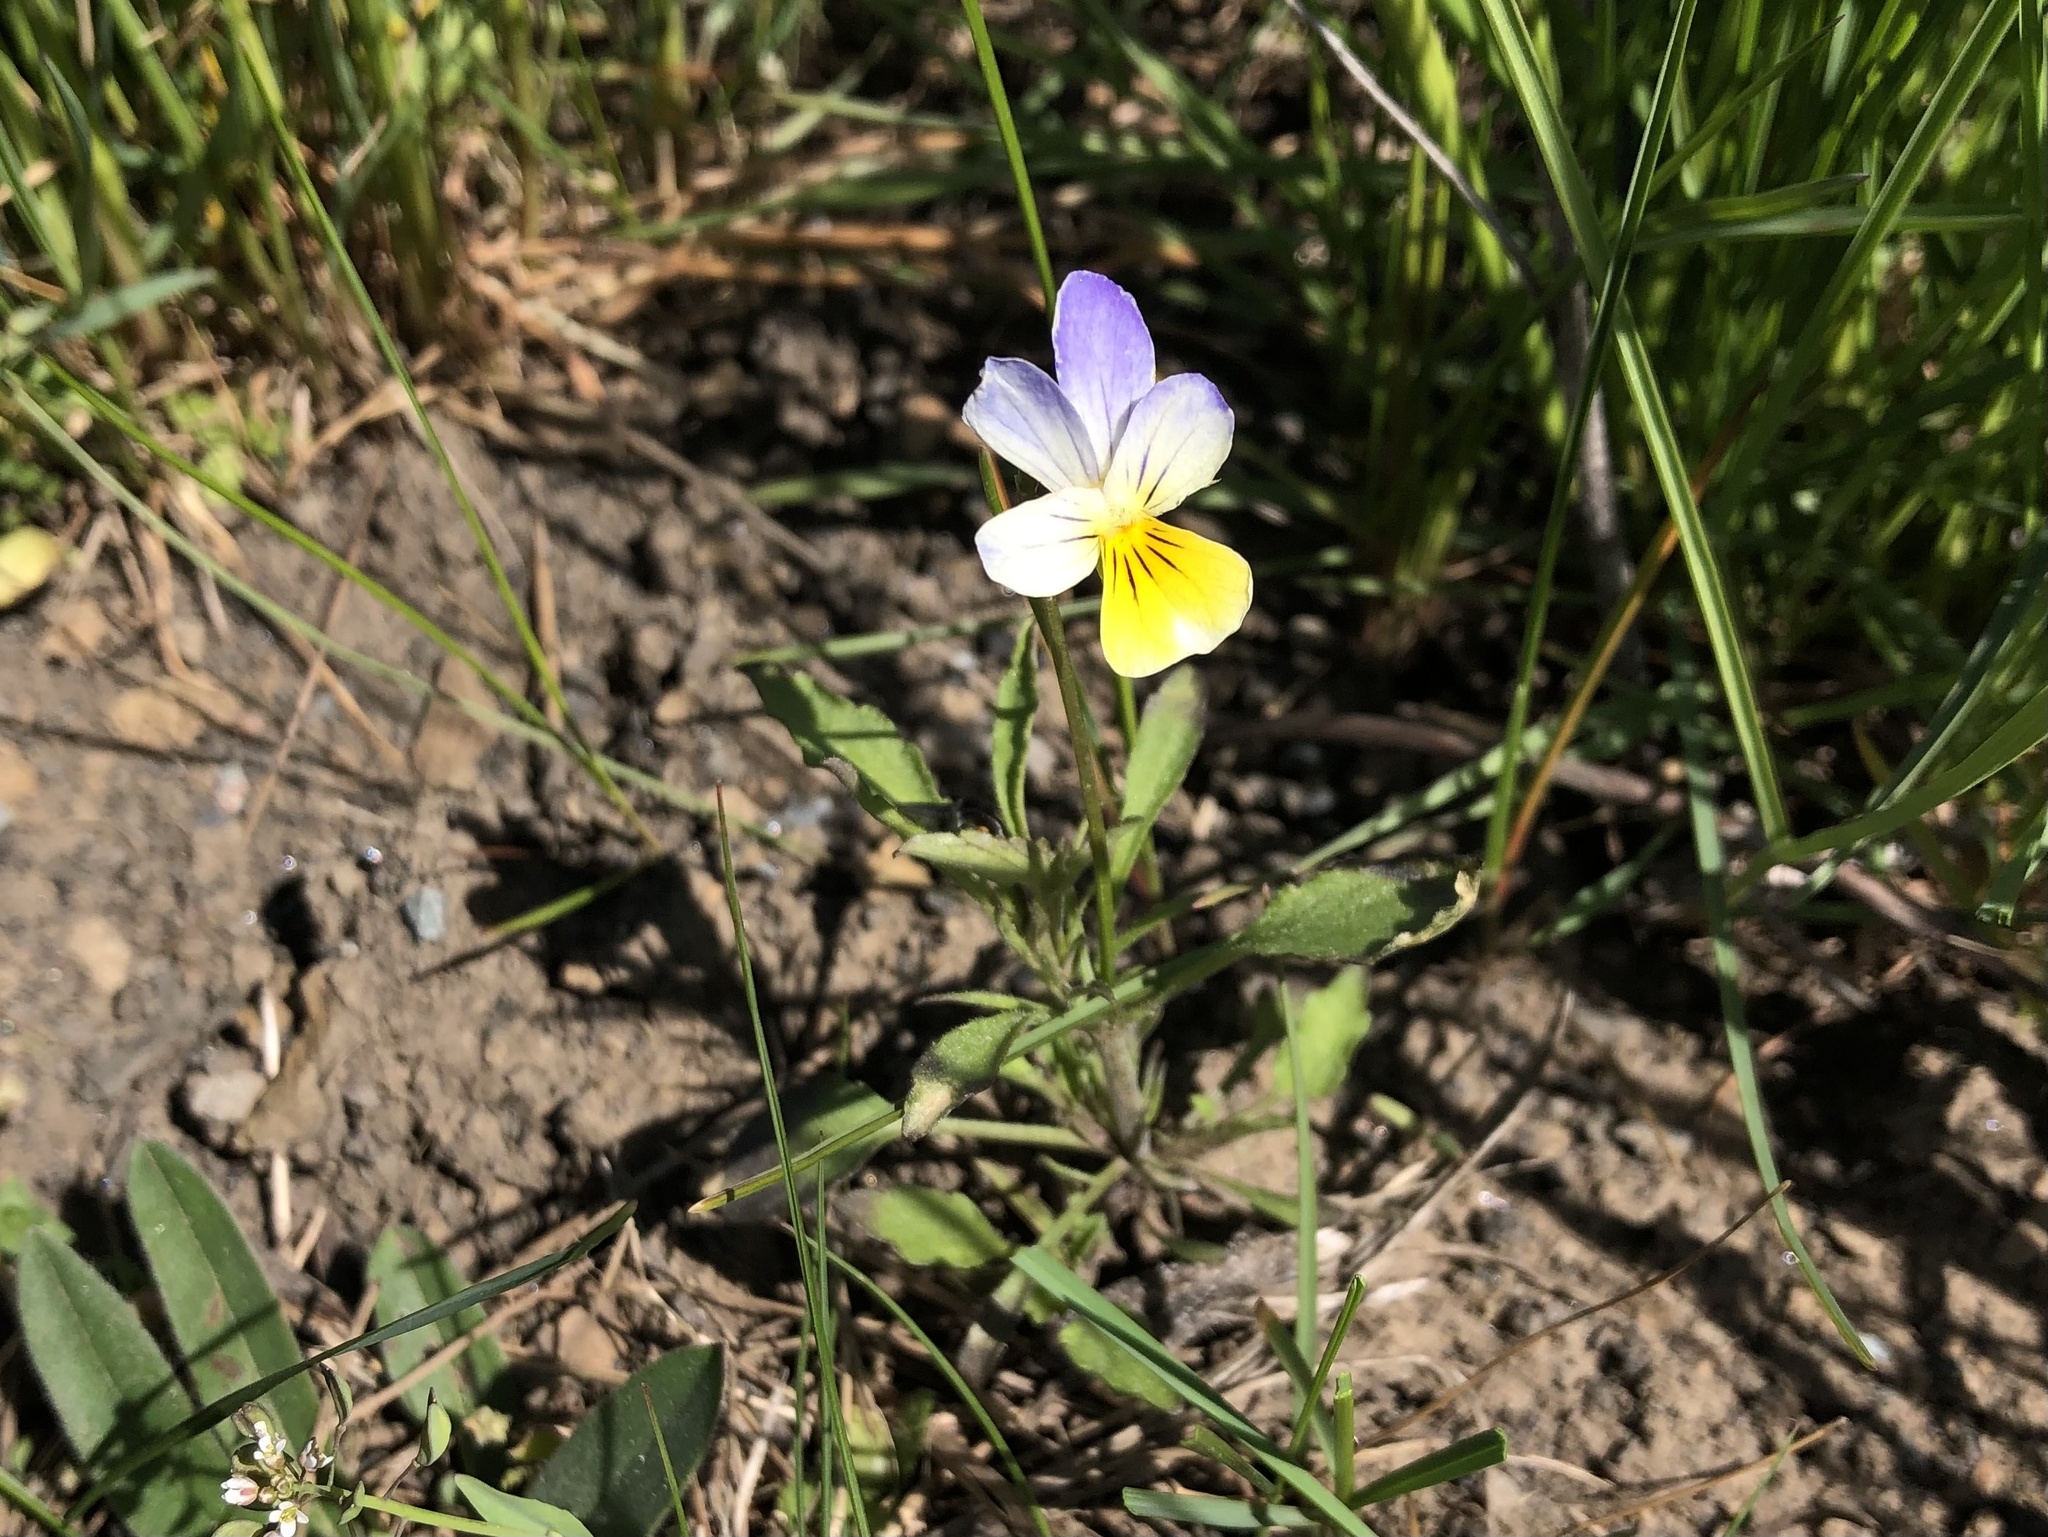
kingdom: Plantae
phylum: Tracheophyta
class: Magnoliopsida
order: Malpighiales
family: Violaceae
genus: Viola
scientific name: Viola tricolor
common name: Pansy
